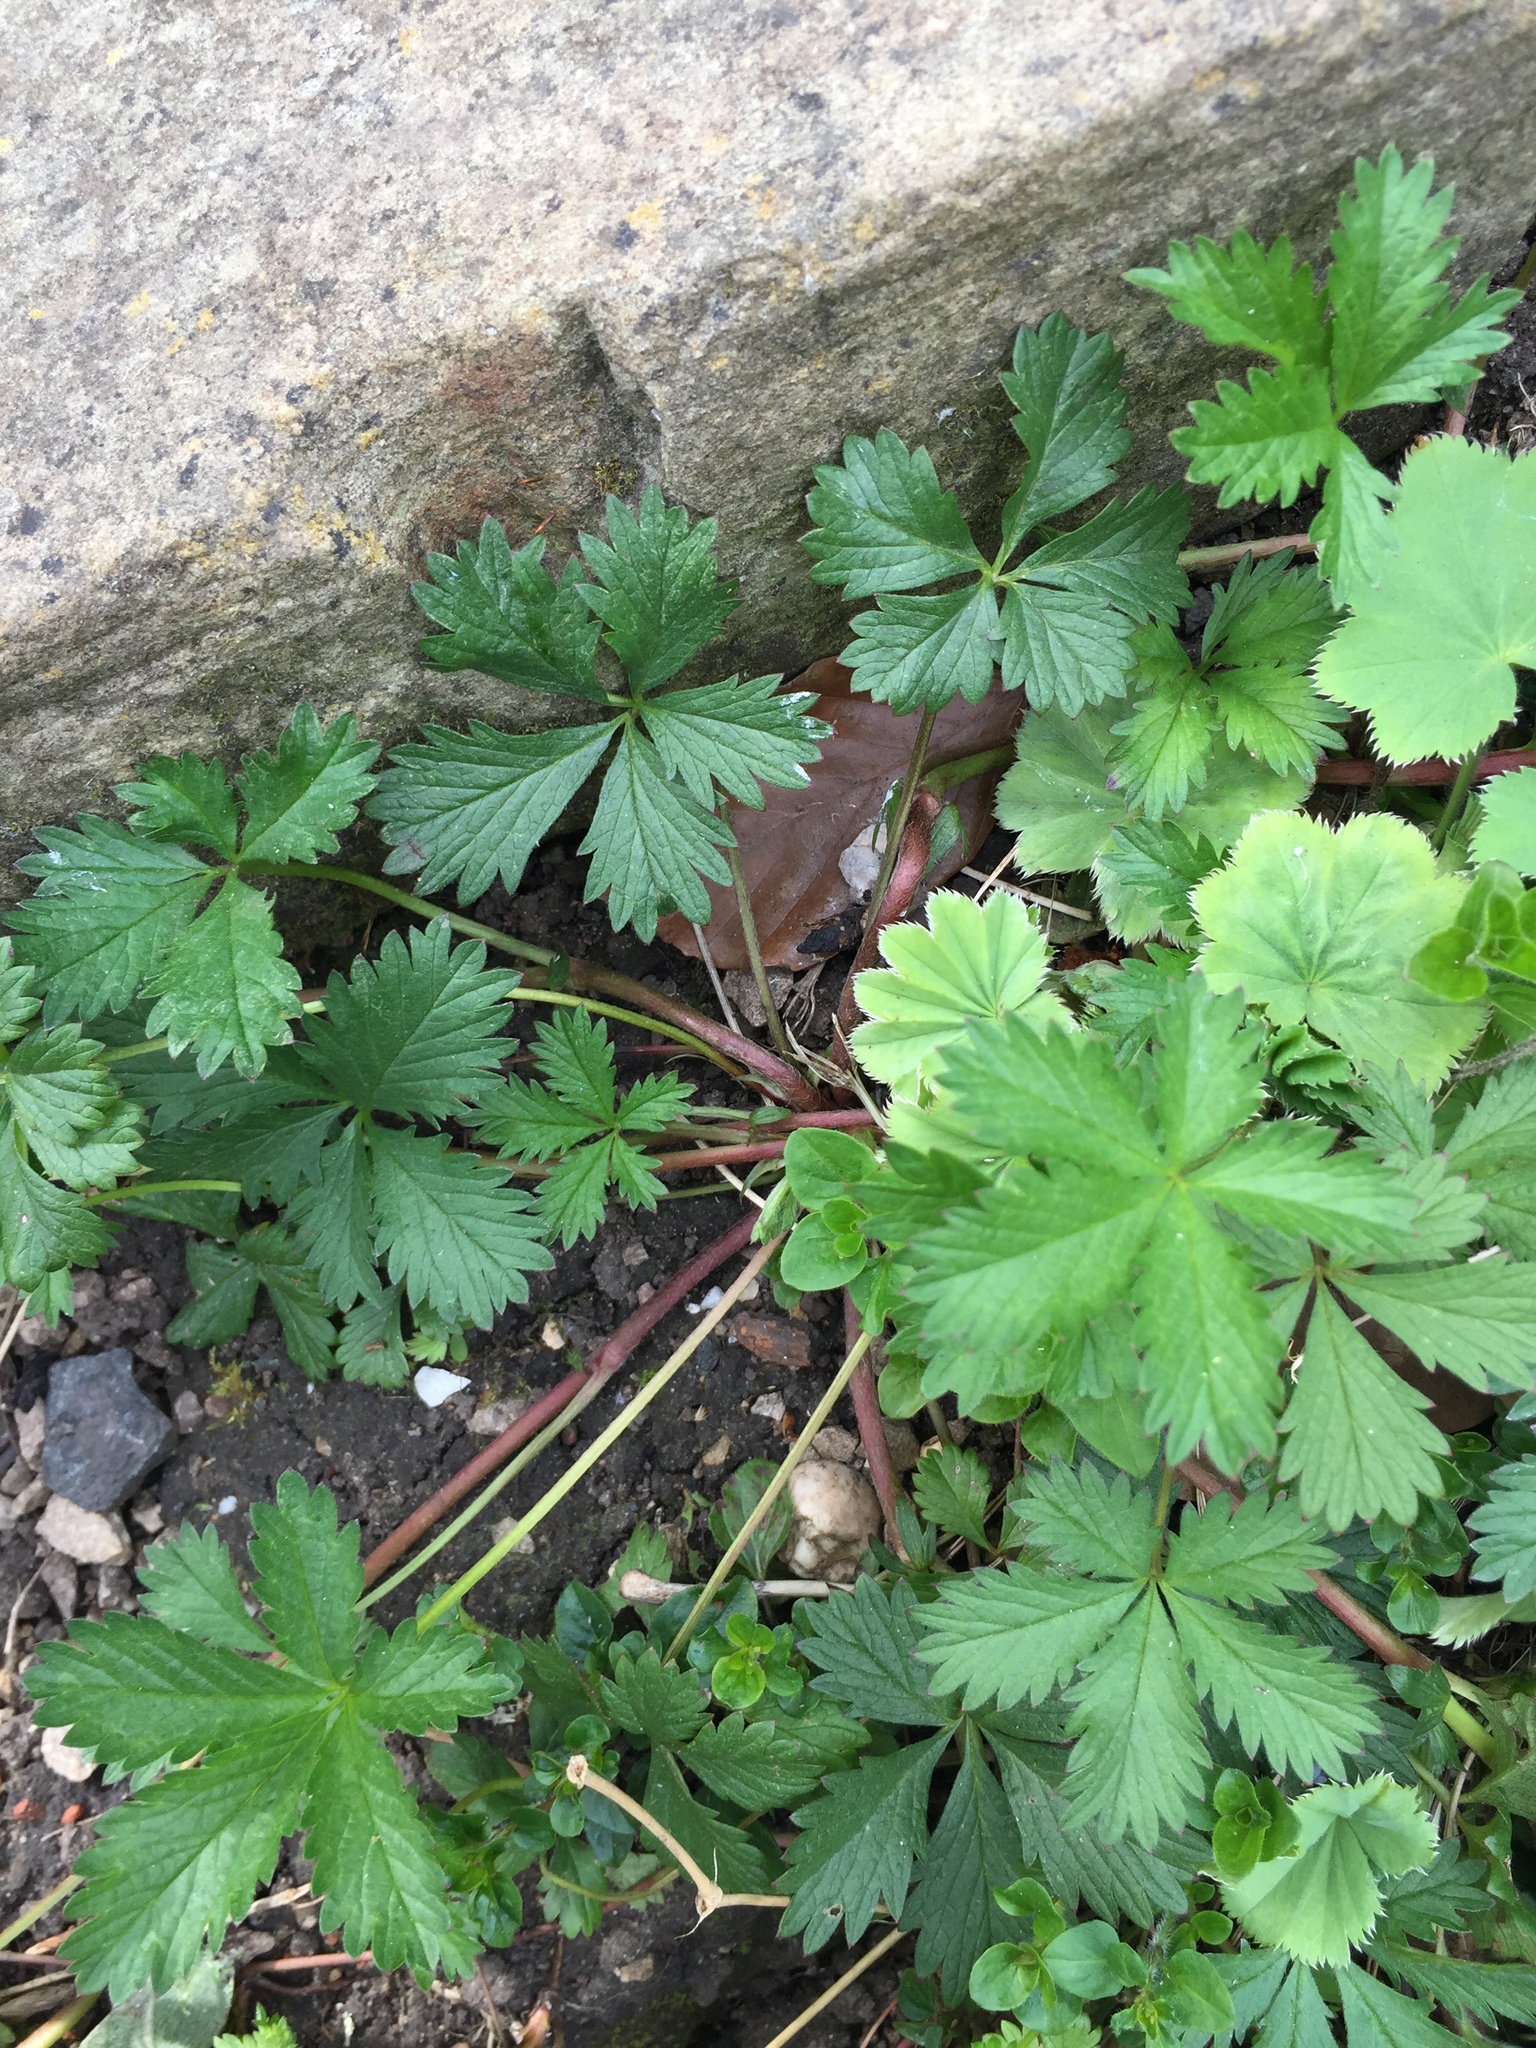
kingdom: Plantae
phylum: Tracheophyta
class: Magnoliopsida
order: Rosales
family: Rosaceae
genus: Potentilla
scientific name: Potentilla reptans
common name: Creeping cinquefoil
